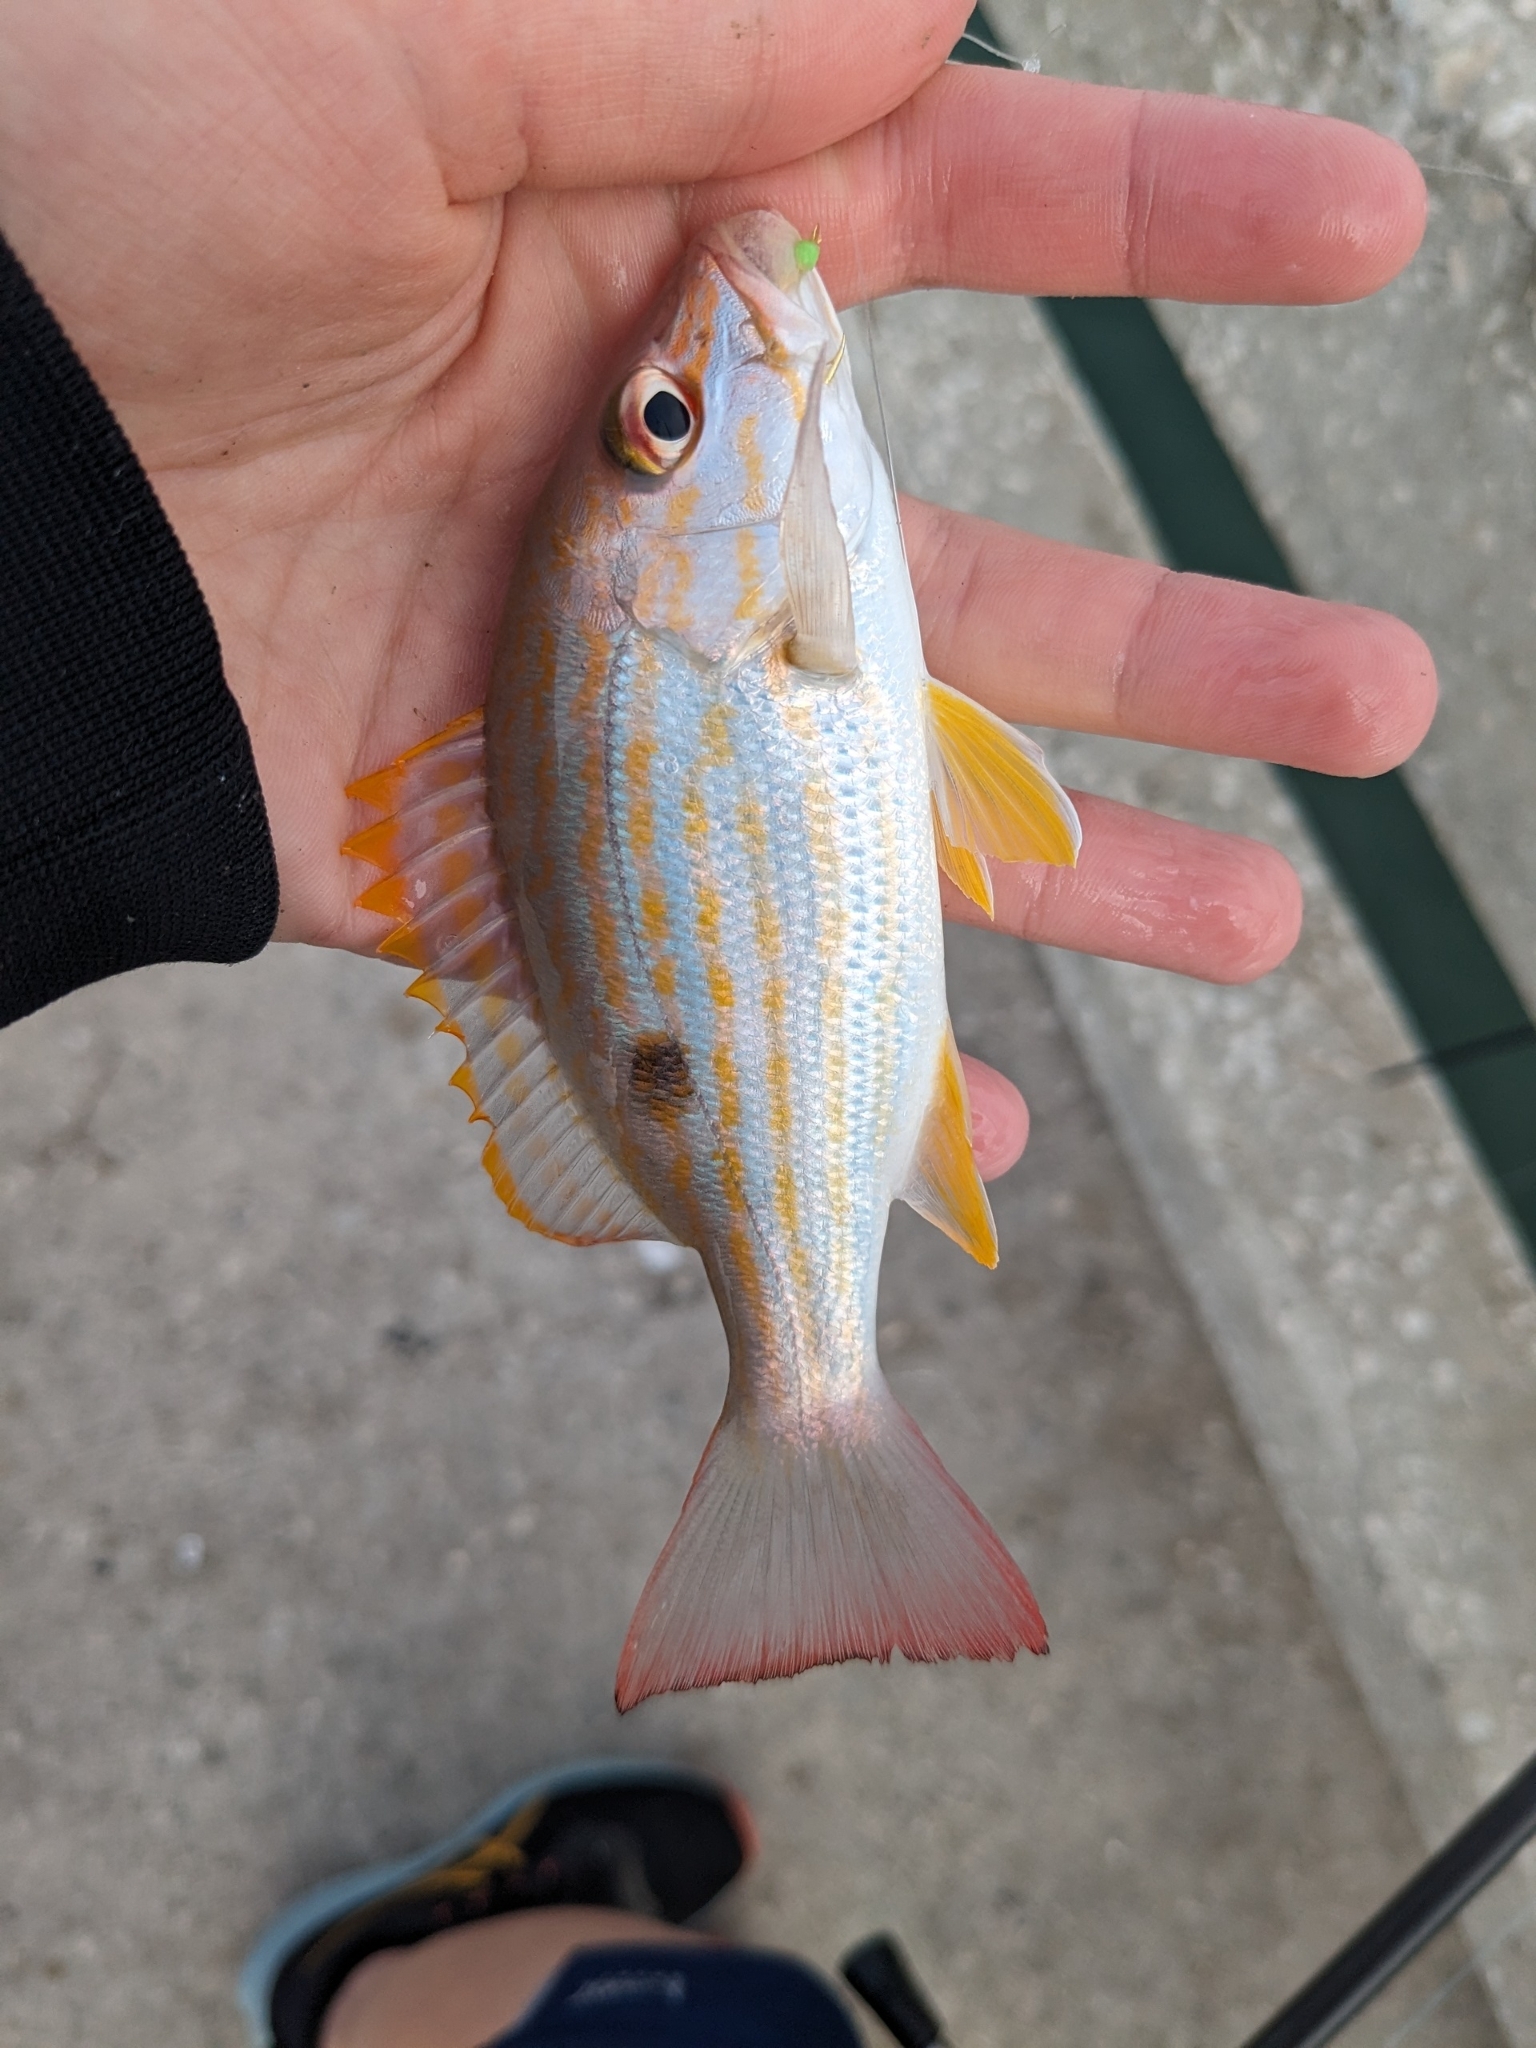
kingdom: Animalia
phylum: Chordata
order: Perciformes
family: Lutjanidae
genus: Lutjanus
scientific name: Lutjanus synagris
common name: Lane snapper
